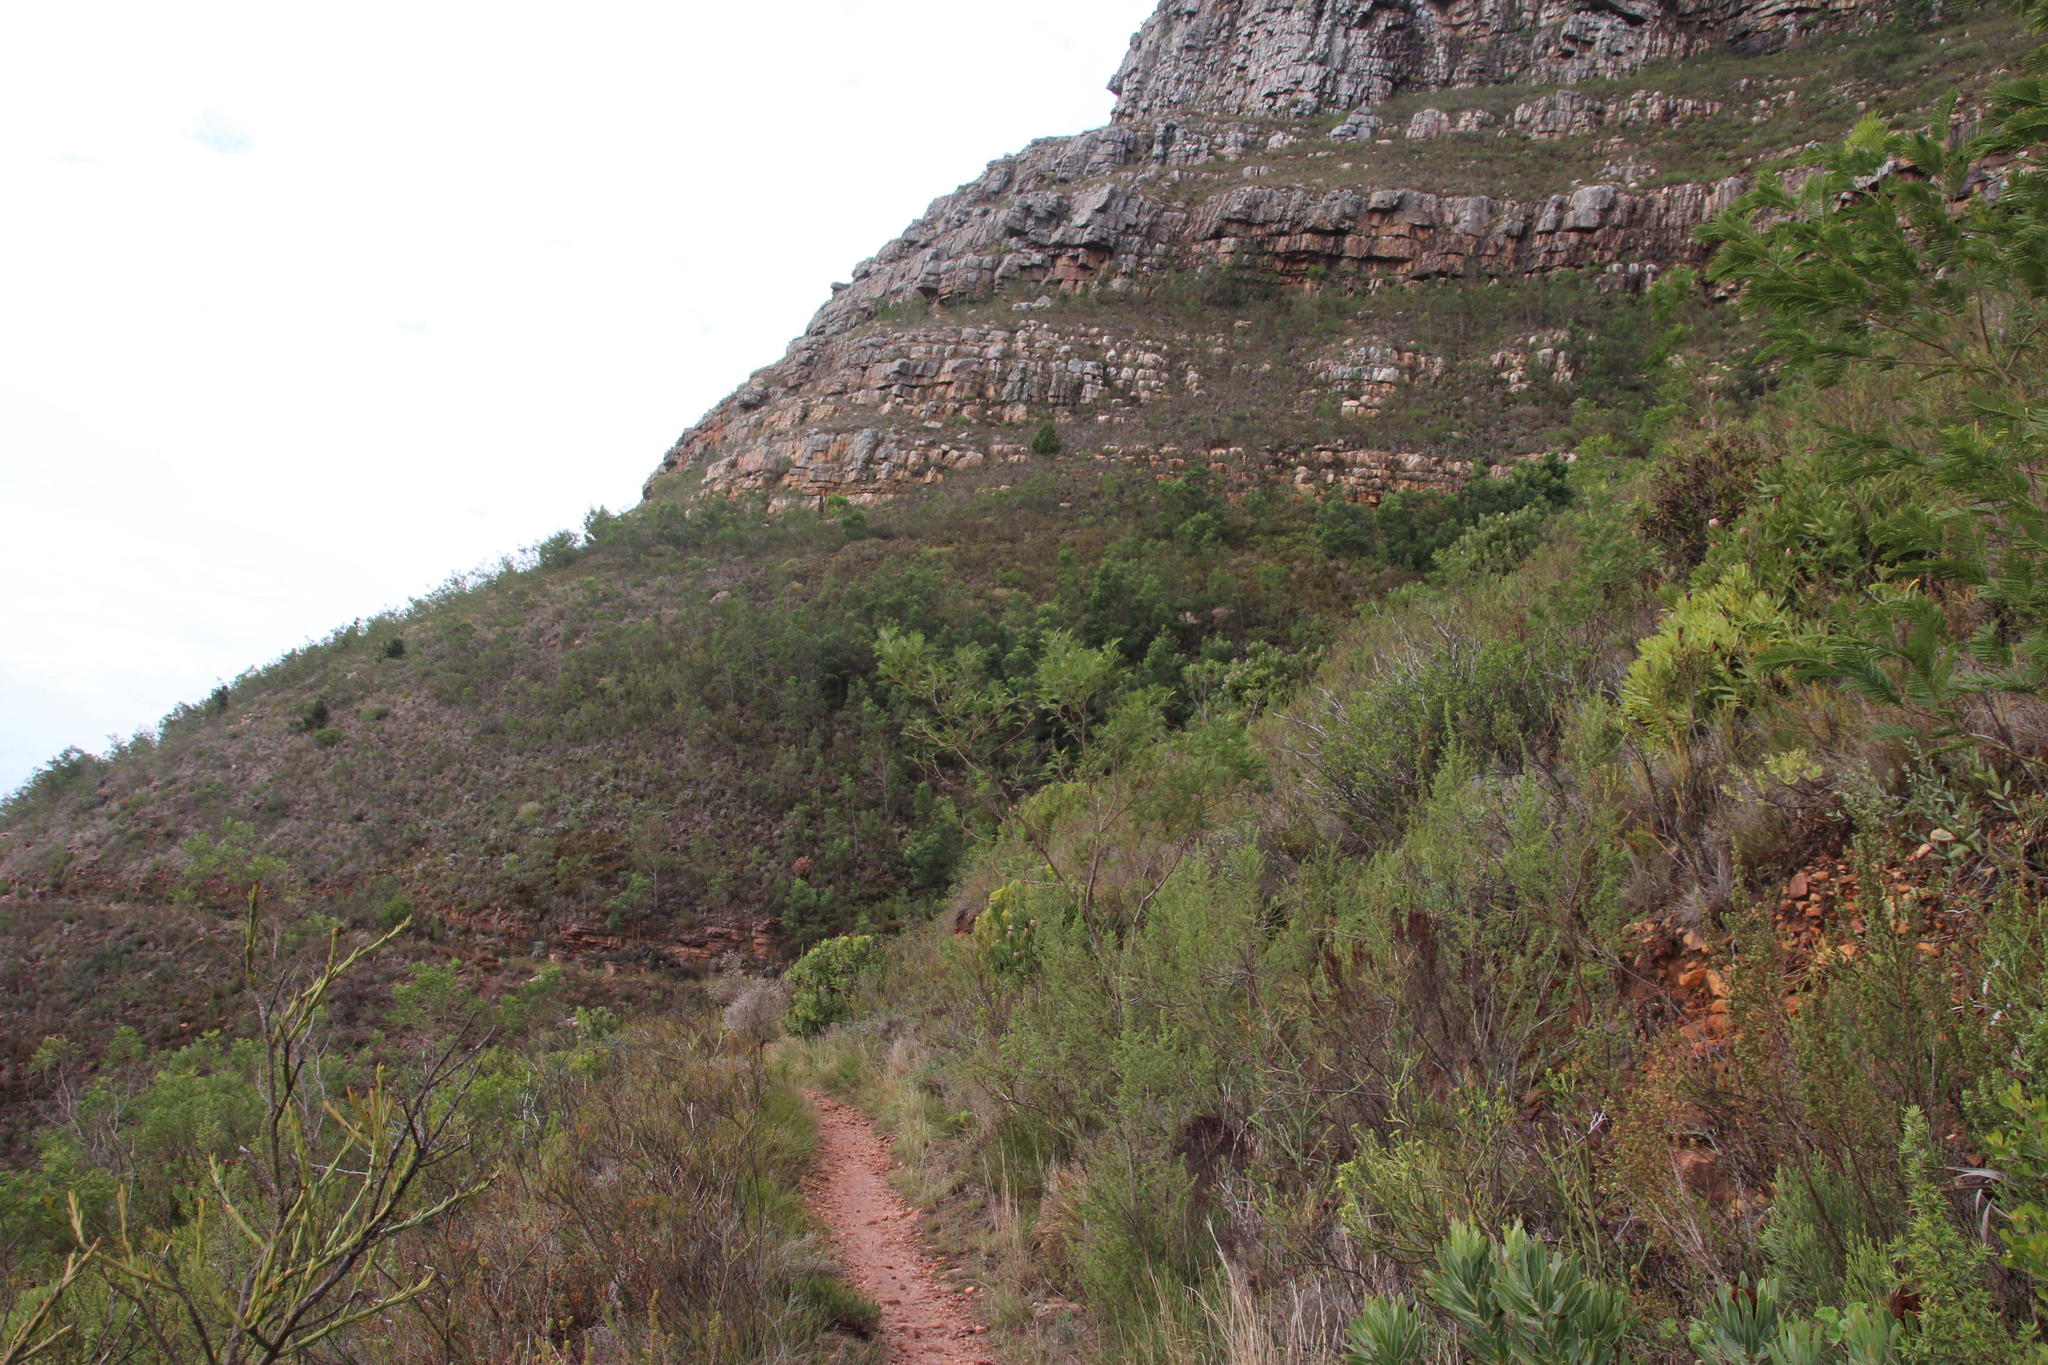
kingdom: Plantae
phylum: Tracheophyta
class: Magnoliopsida
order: Fabales
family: Fabaceae
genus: Acacia
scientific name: Acacia mearnsii
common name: Black wattle
